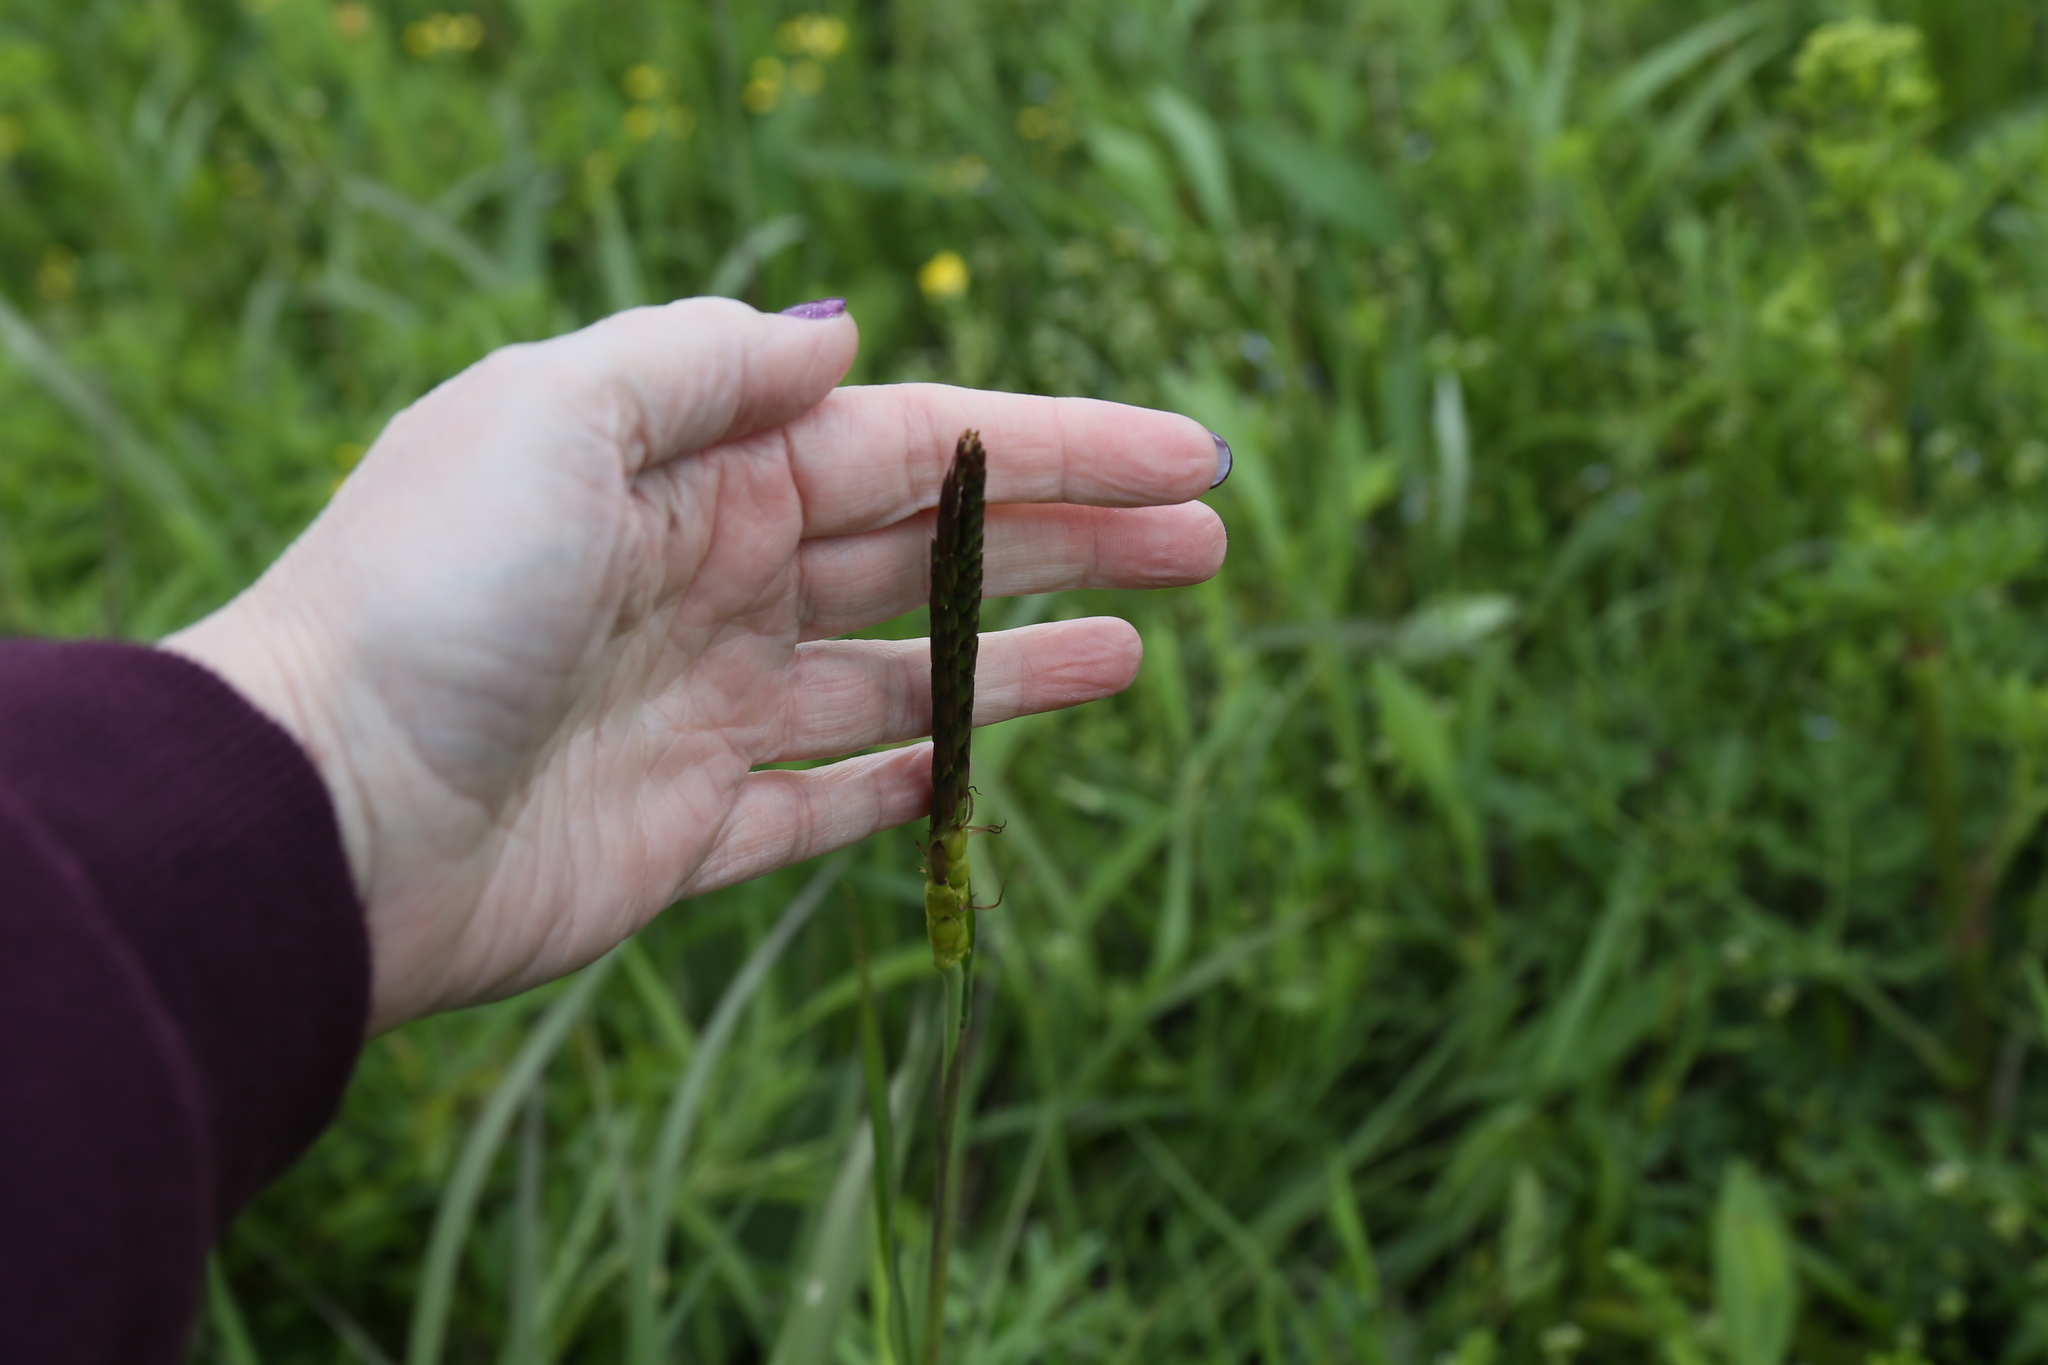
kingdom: Plantae
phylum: Tracheophyta
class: Liliopsida
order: Poales
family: Poaceae
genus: Tripsacum
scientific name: Tripsacum dactyloides
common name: Buffalo-grass
